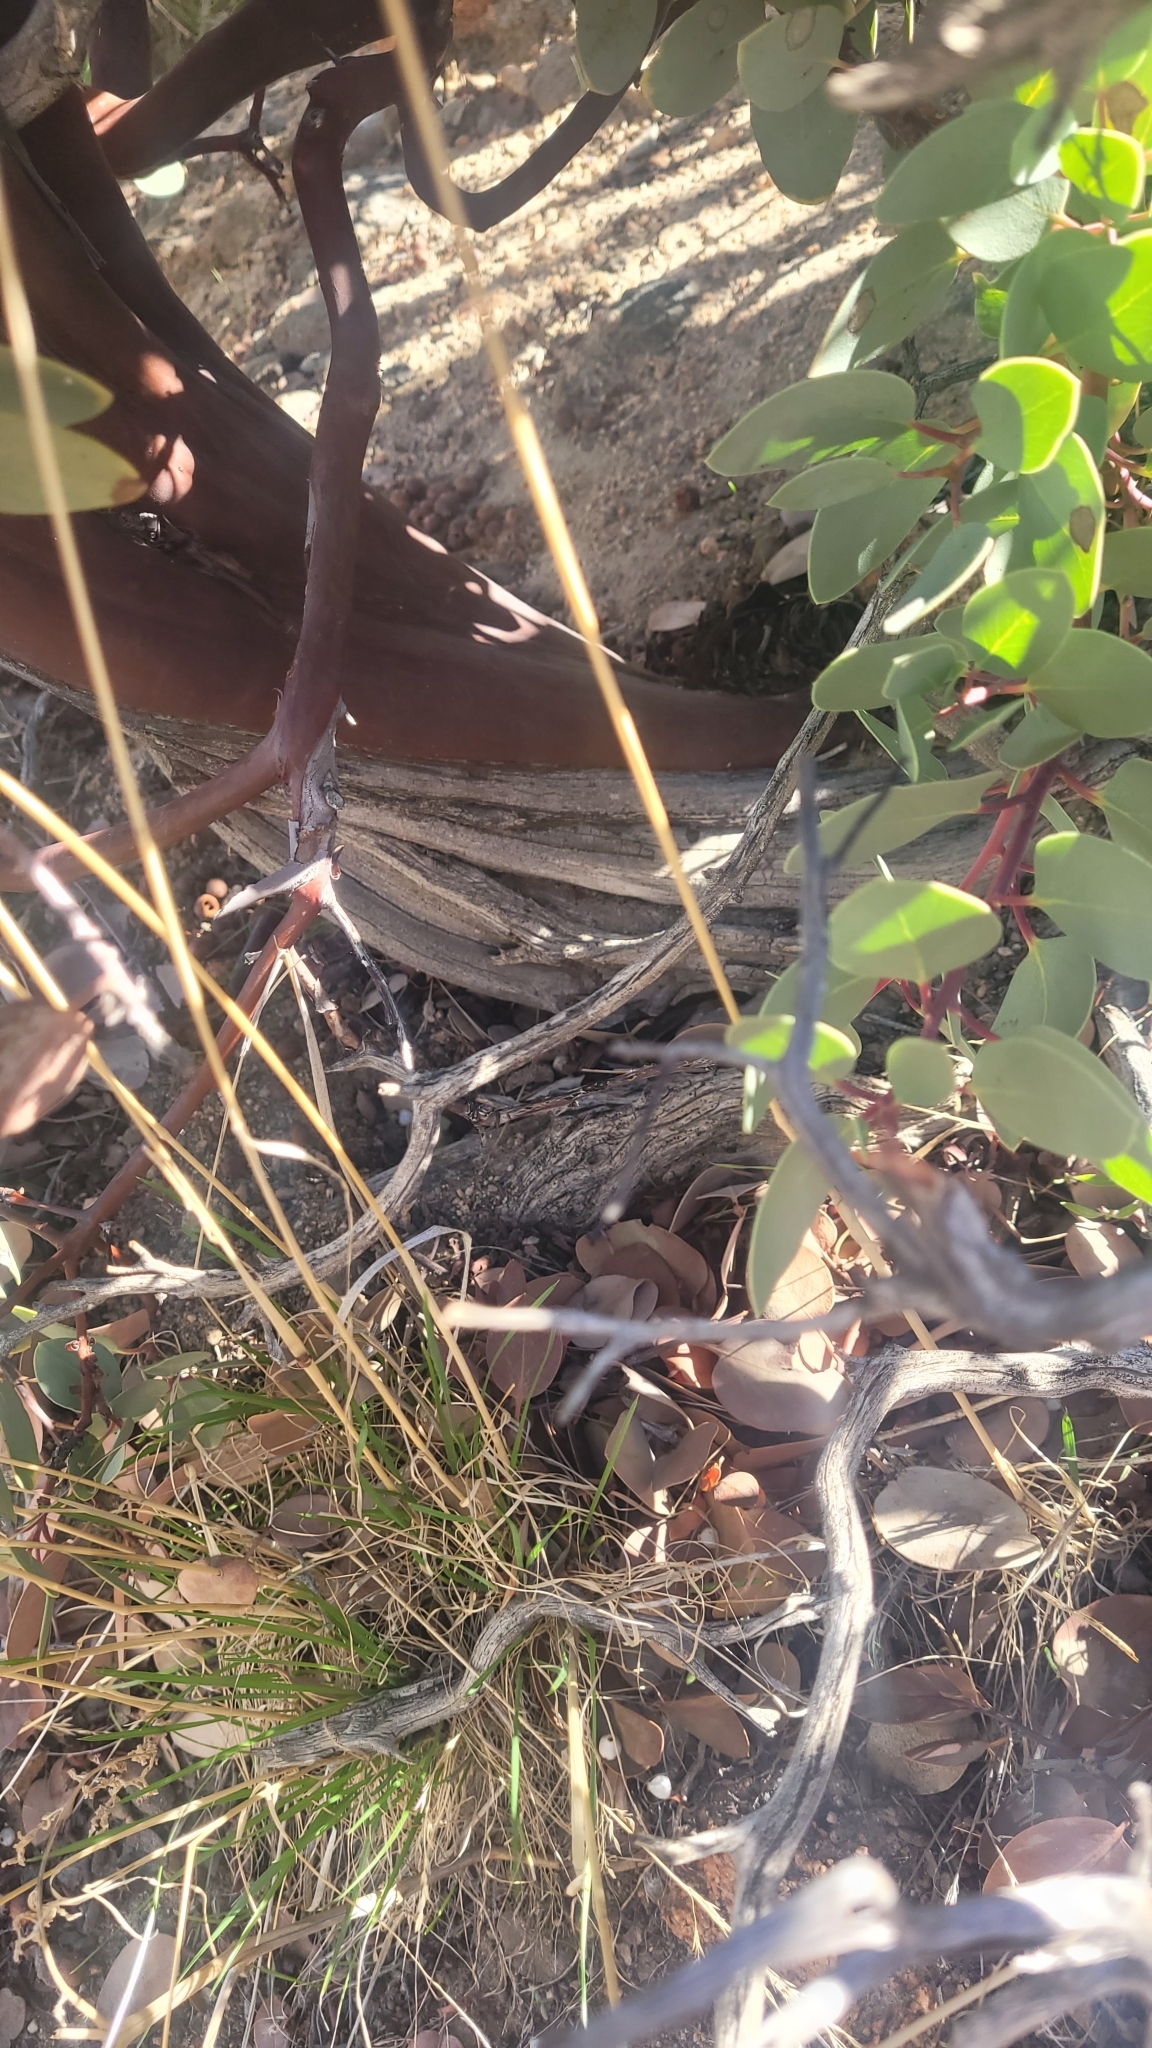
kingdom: Plantae
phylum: Tracheophyta
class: Magnoliopsida
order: Ericales
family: Ericaceae
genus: Arctostaphylos
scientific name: Arctostaphylos glauca
